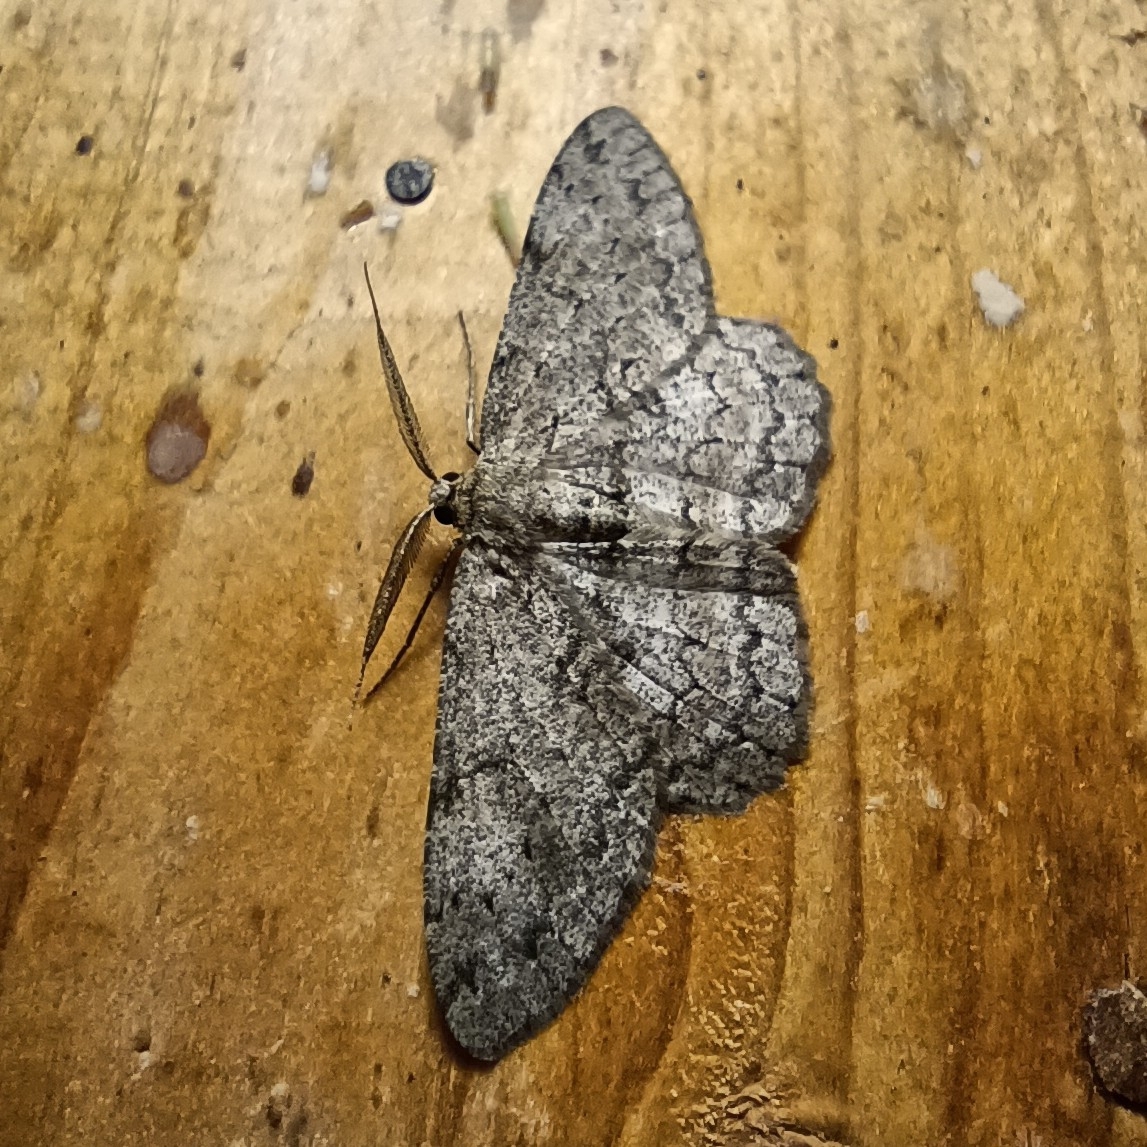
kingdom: Animalia
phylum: Arthropoda
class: Insecta
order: Lepidoptera
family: Geometridae
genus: Hypomecis
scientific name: Hypomecis punctinalis
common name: Pale oak beauty
